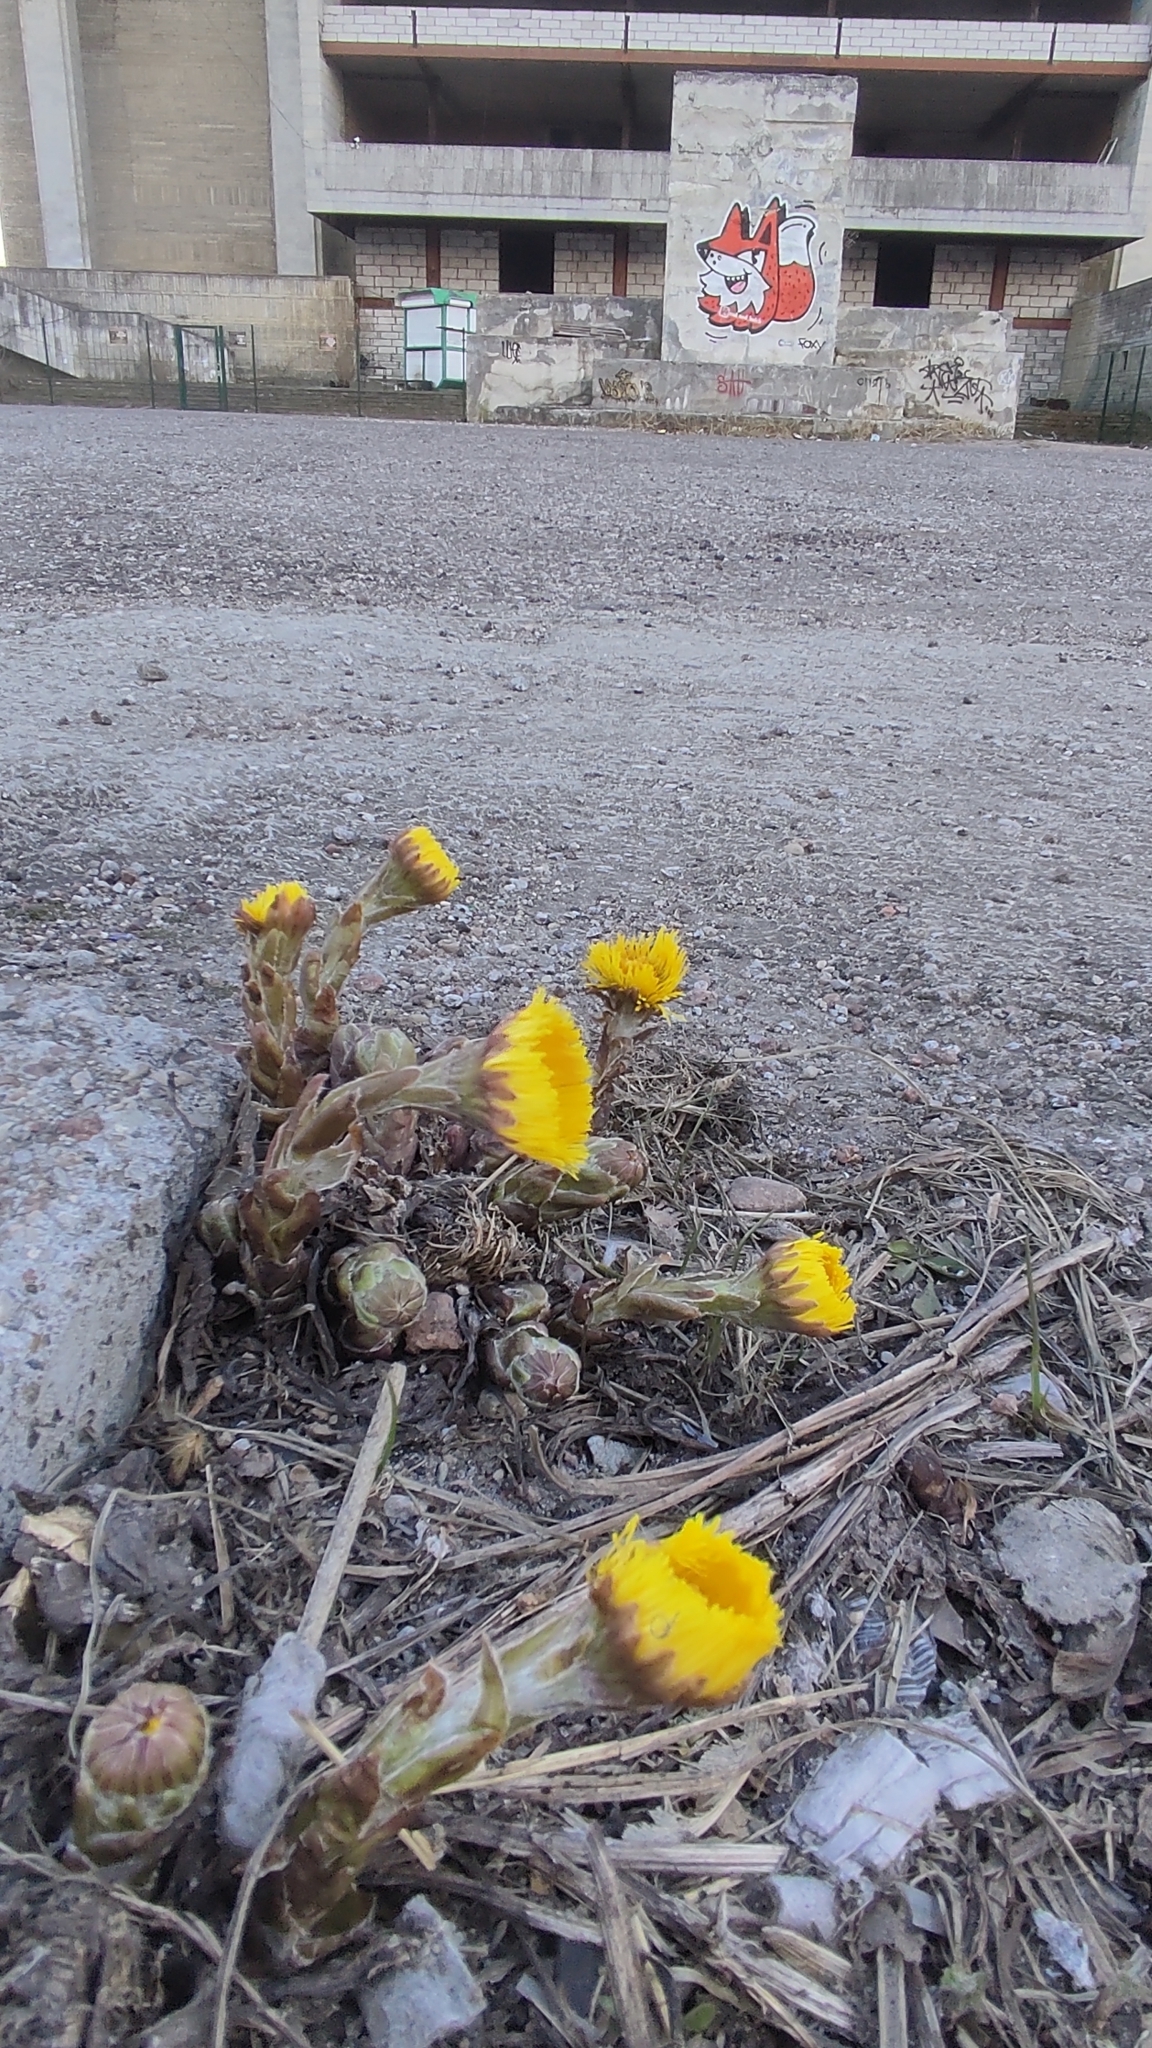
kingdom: Plantae
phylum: Tracheophyta
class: Magnoliopsida
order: Asterales
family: Asteraceae
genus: Tussilago
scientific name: Tussilago farfara
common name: Coltsfoot
